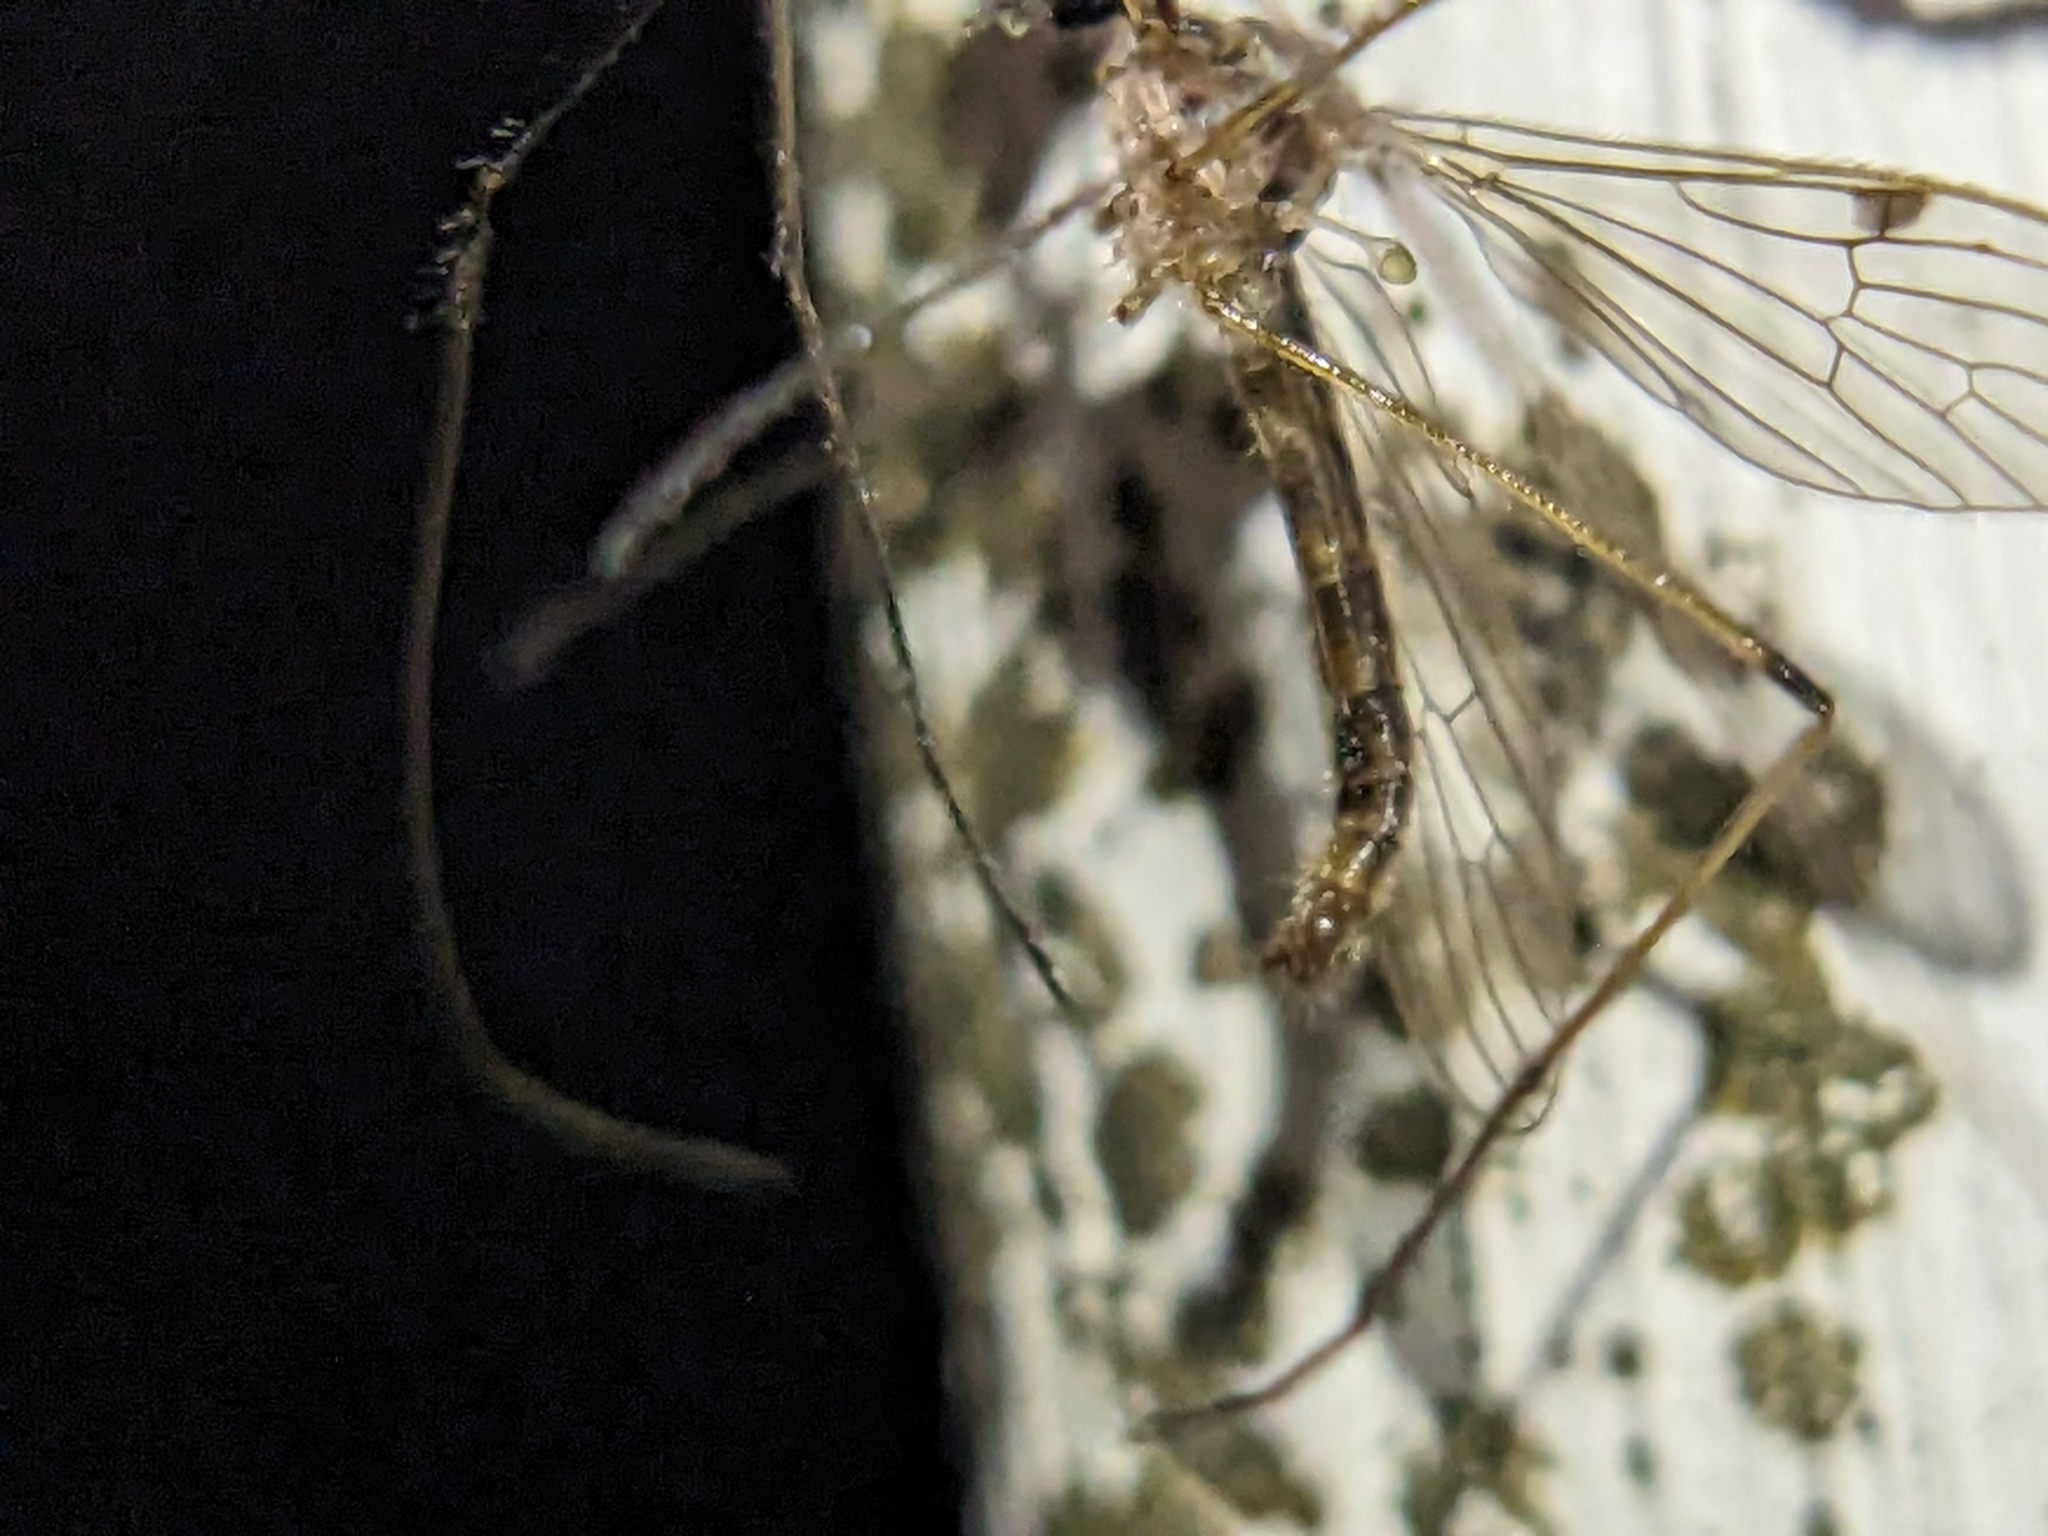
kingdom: Animalia
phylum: Arthropoda
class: Insecta
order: Hemiptera
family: Reduviidae
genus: Repipta
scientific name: Repipta taurus
